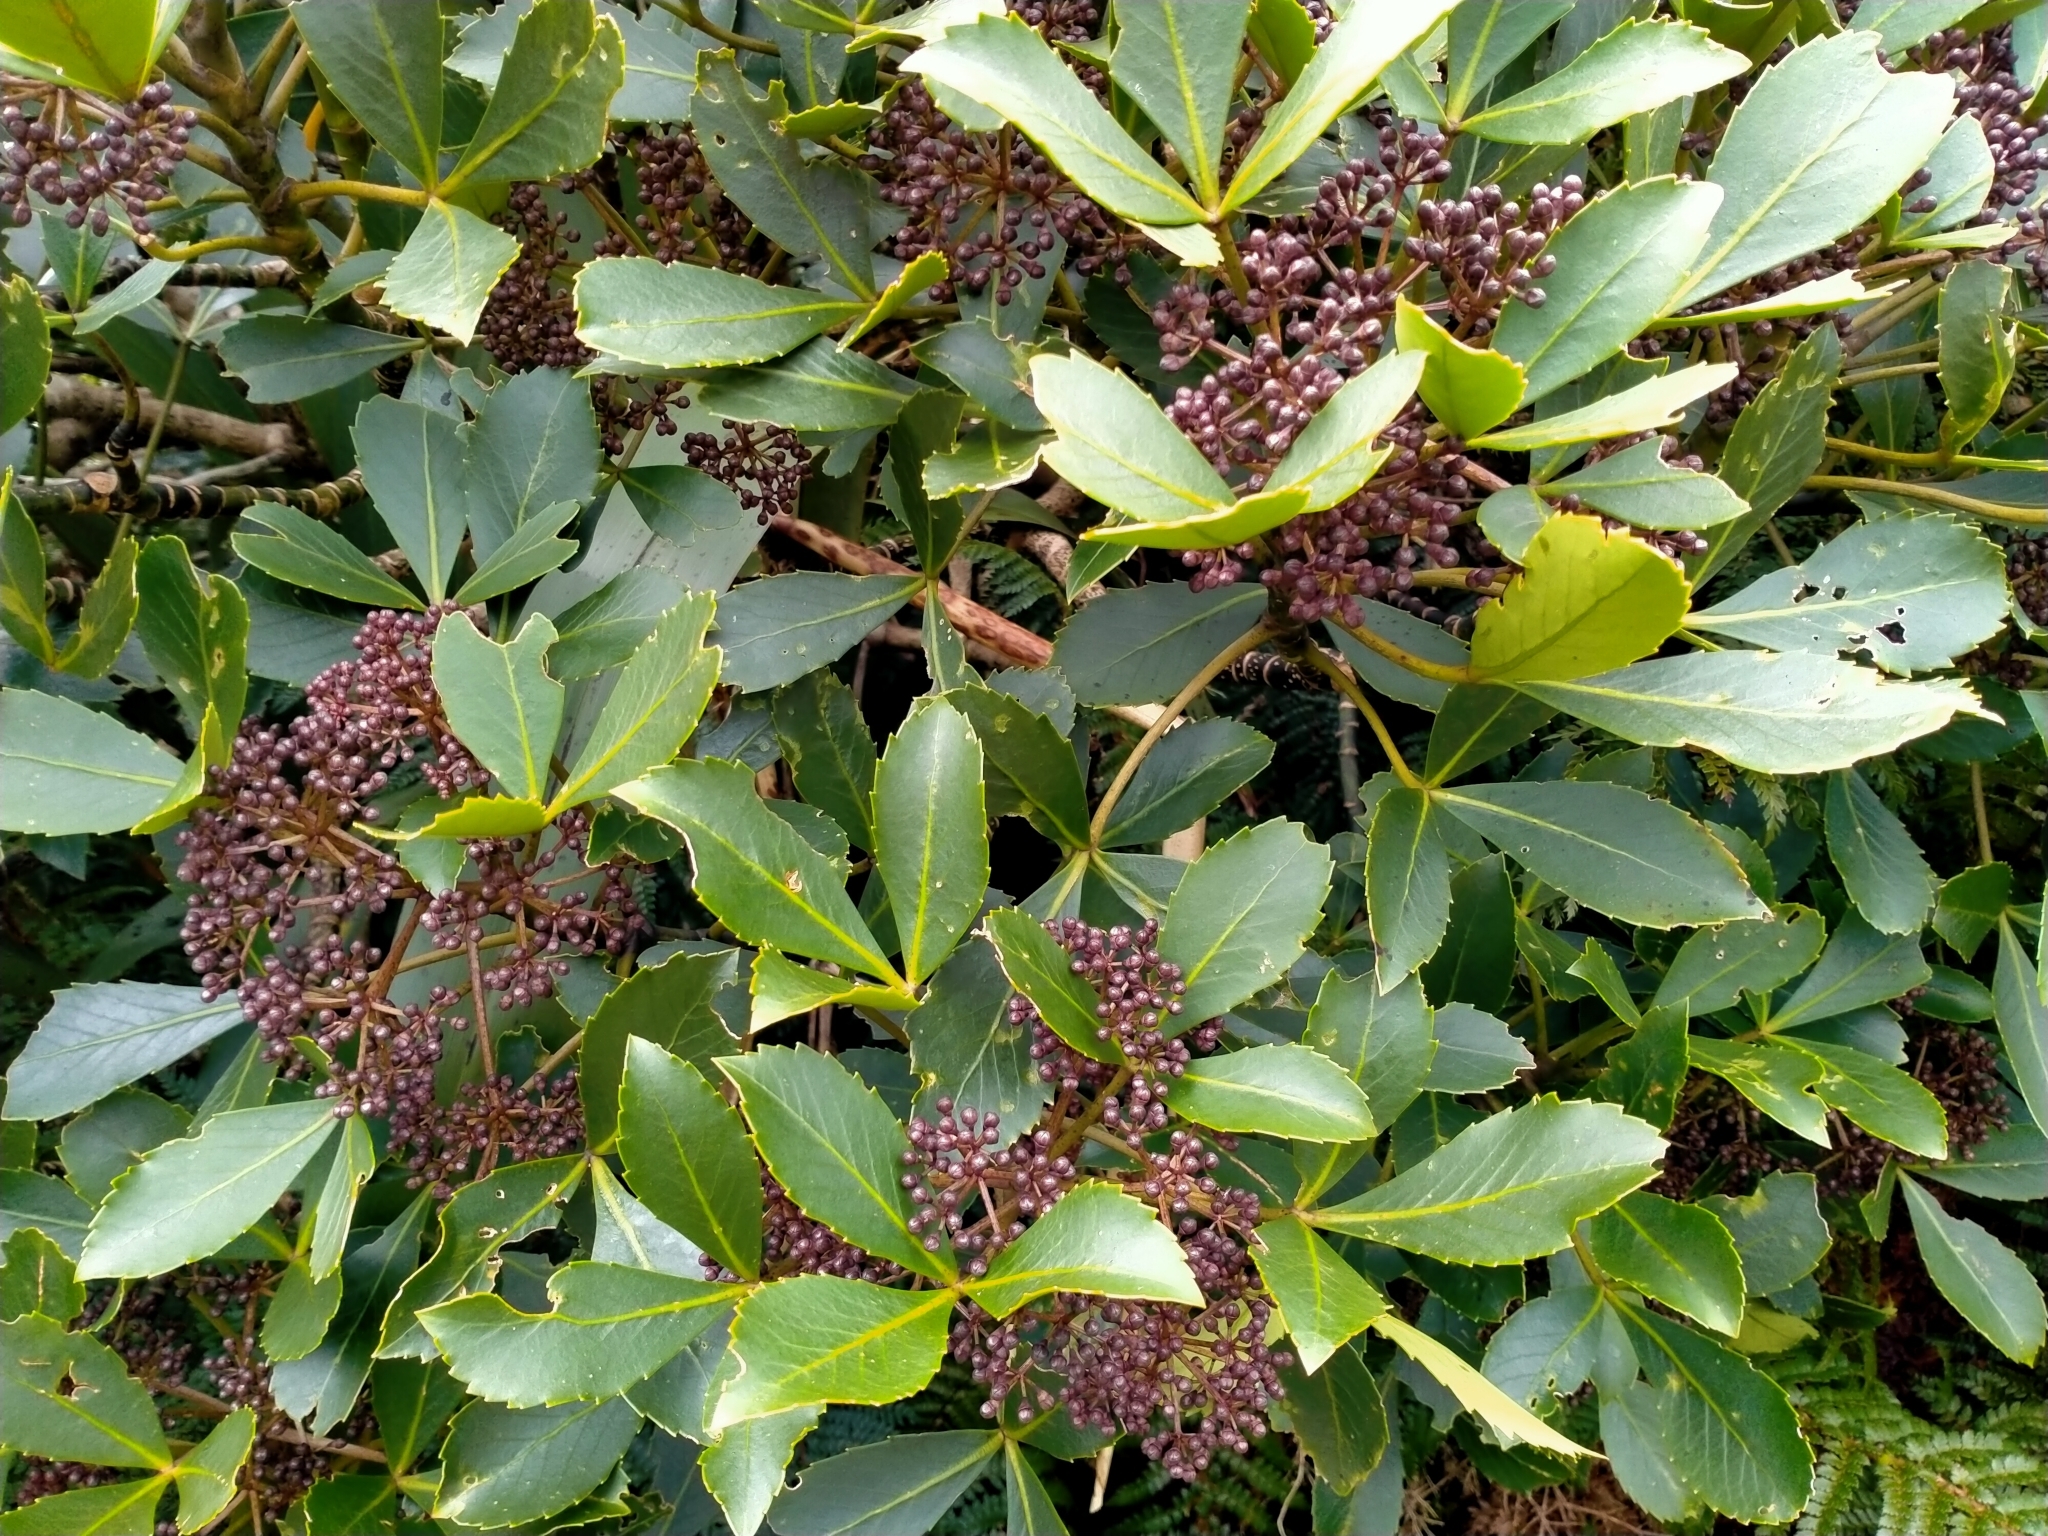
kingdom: Plantae
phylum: Tracheophyta
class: Magnoliopsida
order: Apiales
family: Araliaceae
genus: Neopanax
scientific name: Neopanax colensoi
